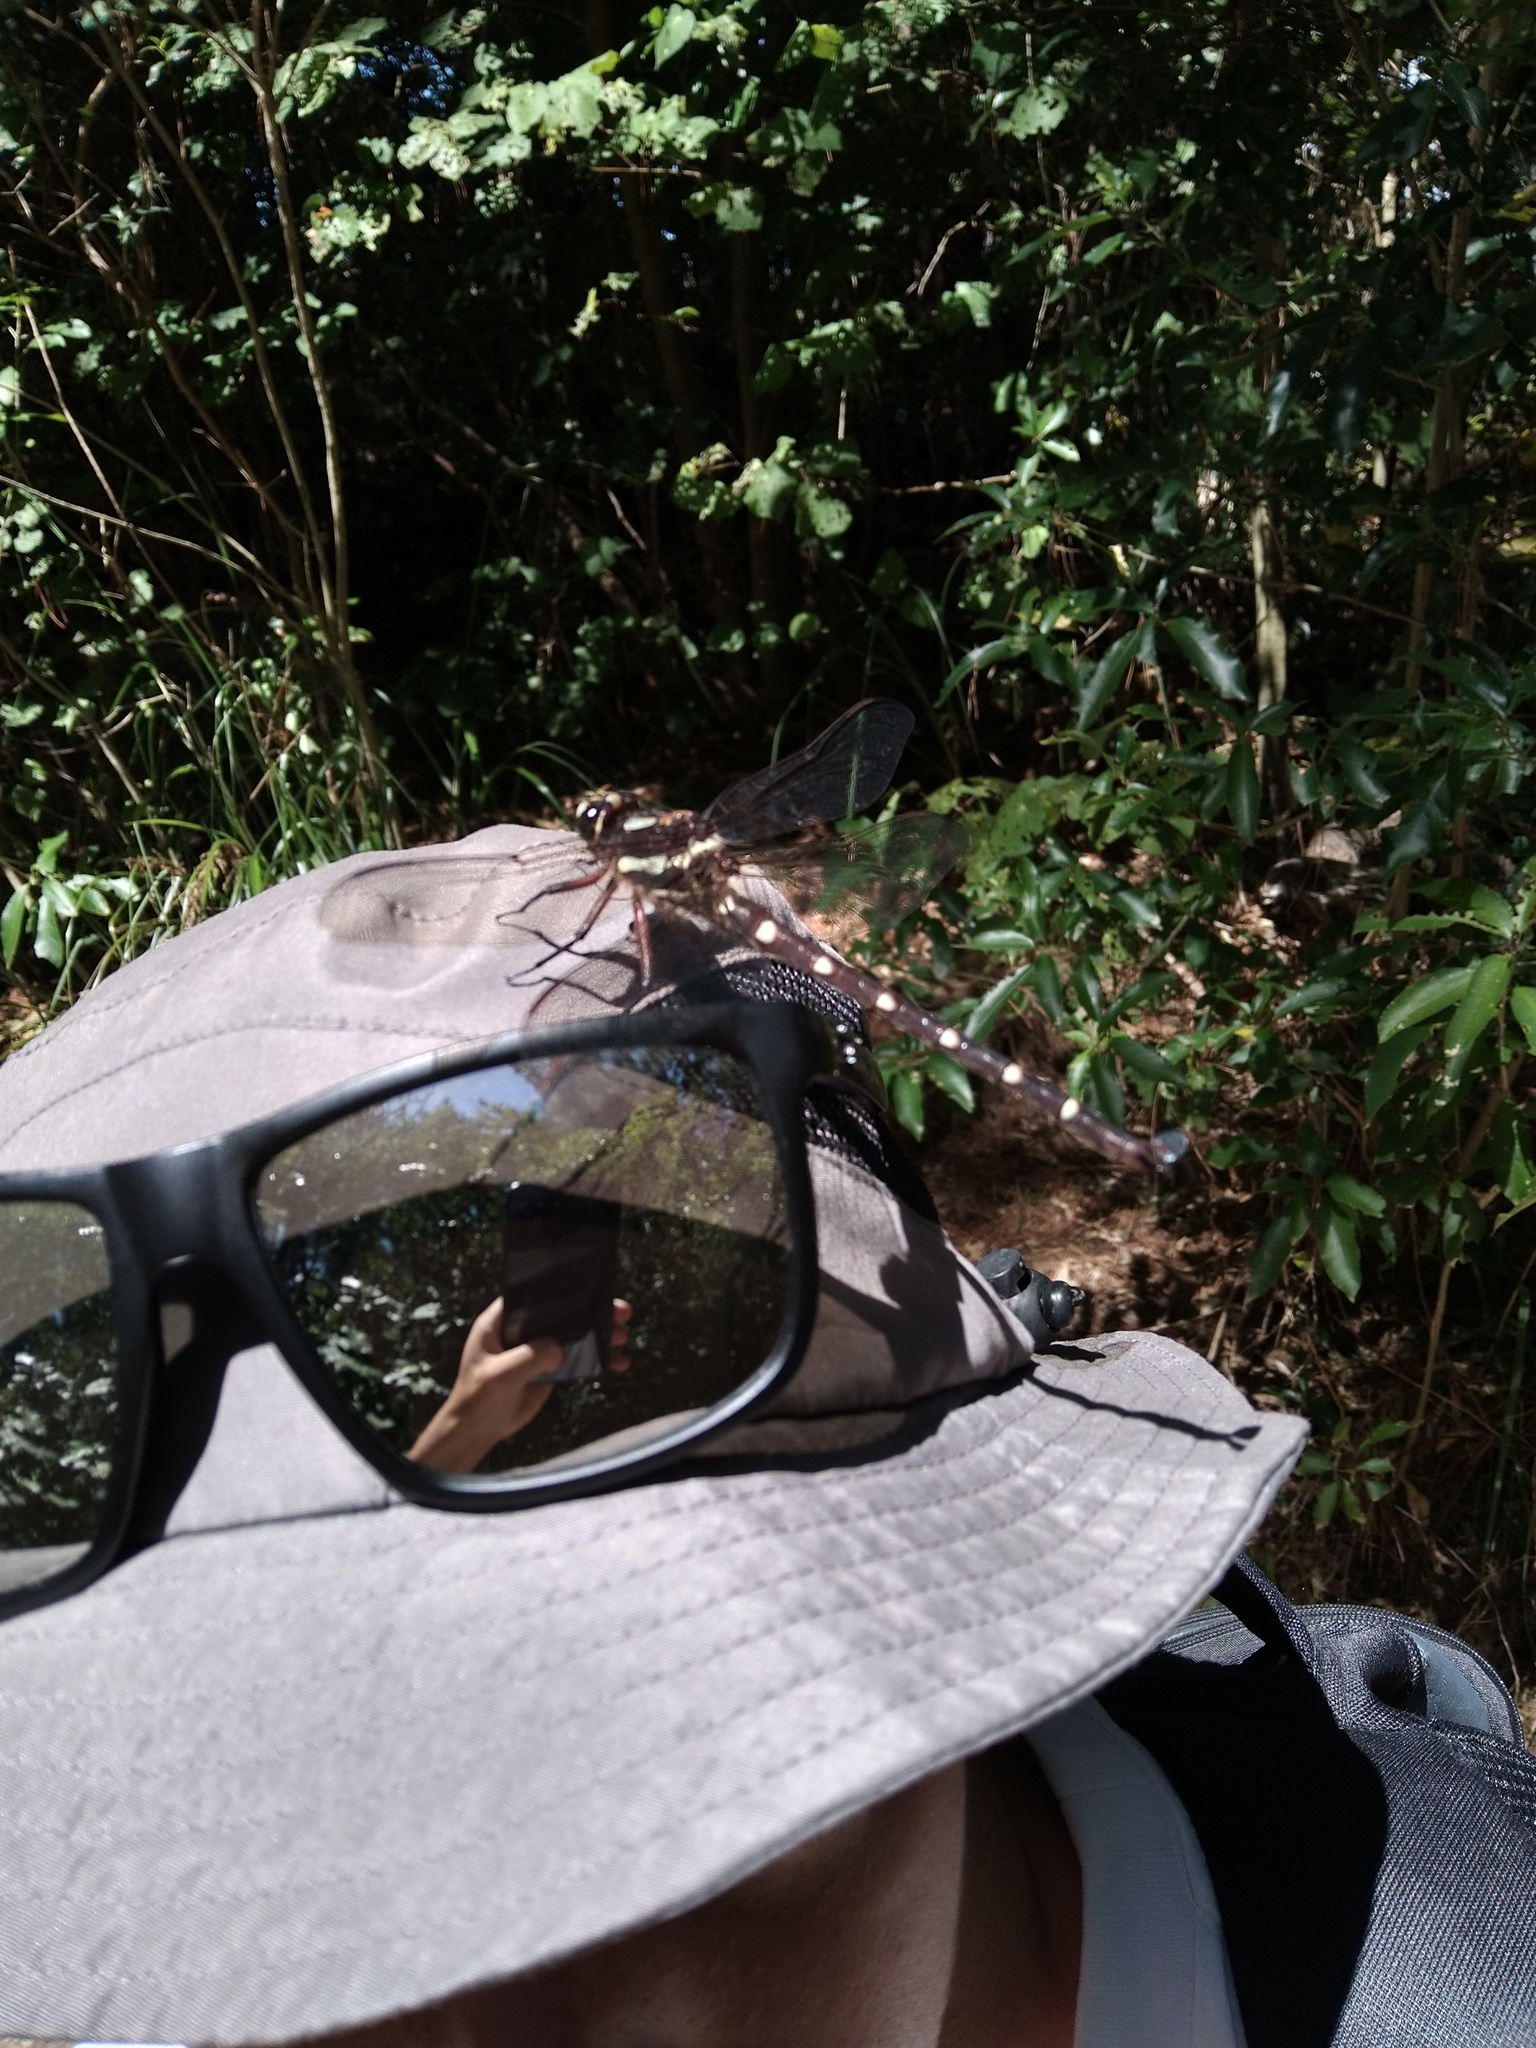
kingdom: Animalia
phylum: Arthropoda
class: Insecta
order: Odonata
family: Petaluridae
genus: Uropetala
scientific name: Uropetala carovei
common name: Bush giant dragonfly
